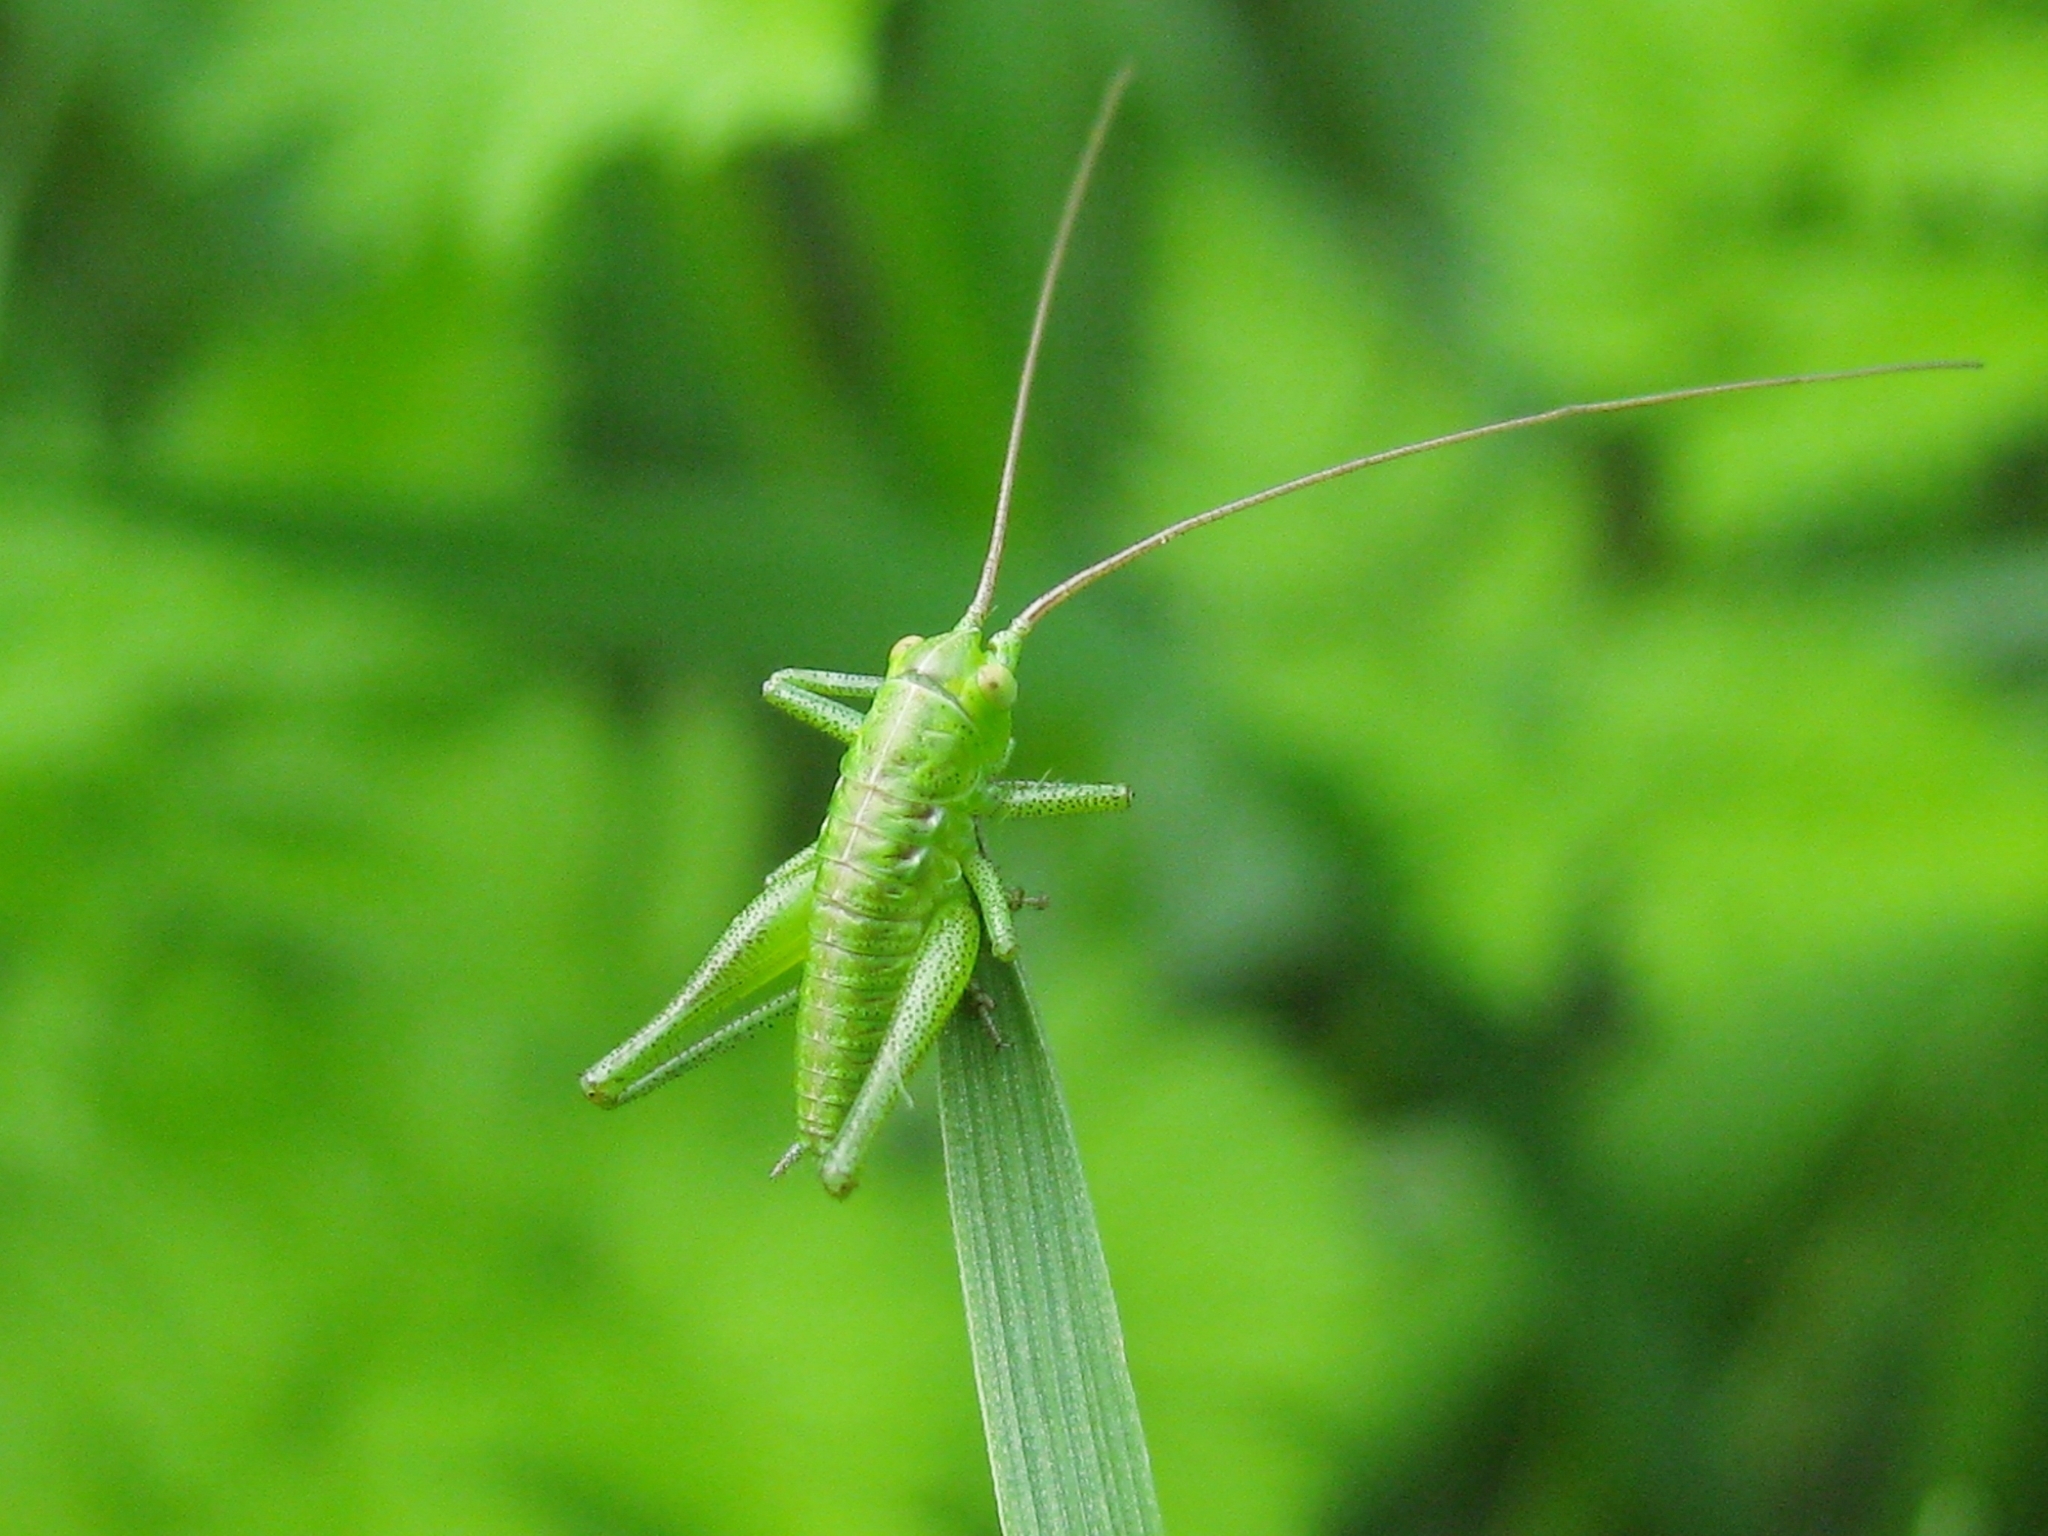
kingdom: Animalia
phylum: Arthropoda
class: Insecta
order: Orthoptera
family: Tettigoniidae
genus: Tettigonia
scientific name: Tettigonia viridissima
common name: Great green bush-cricket
